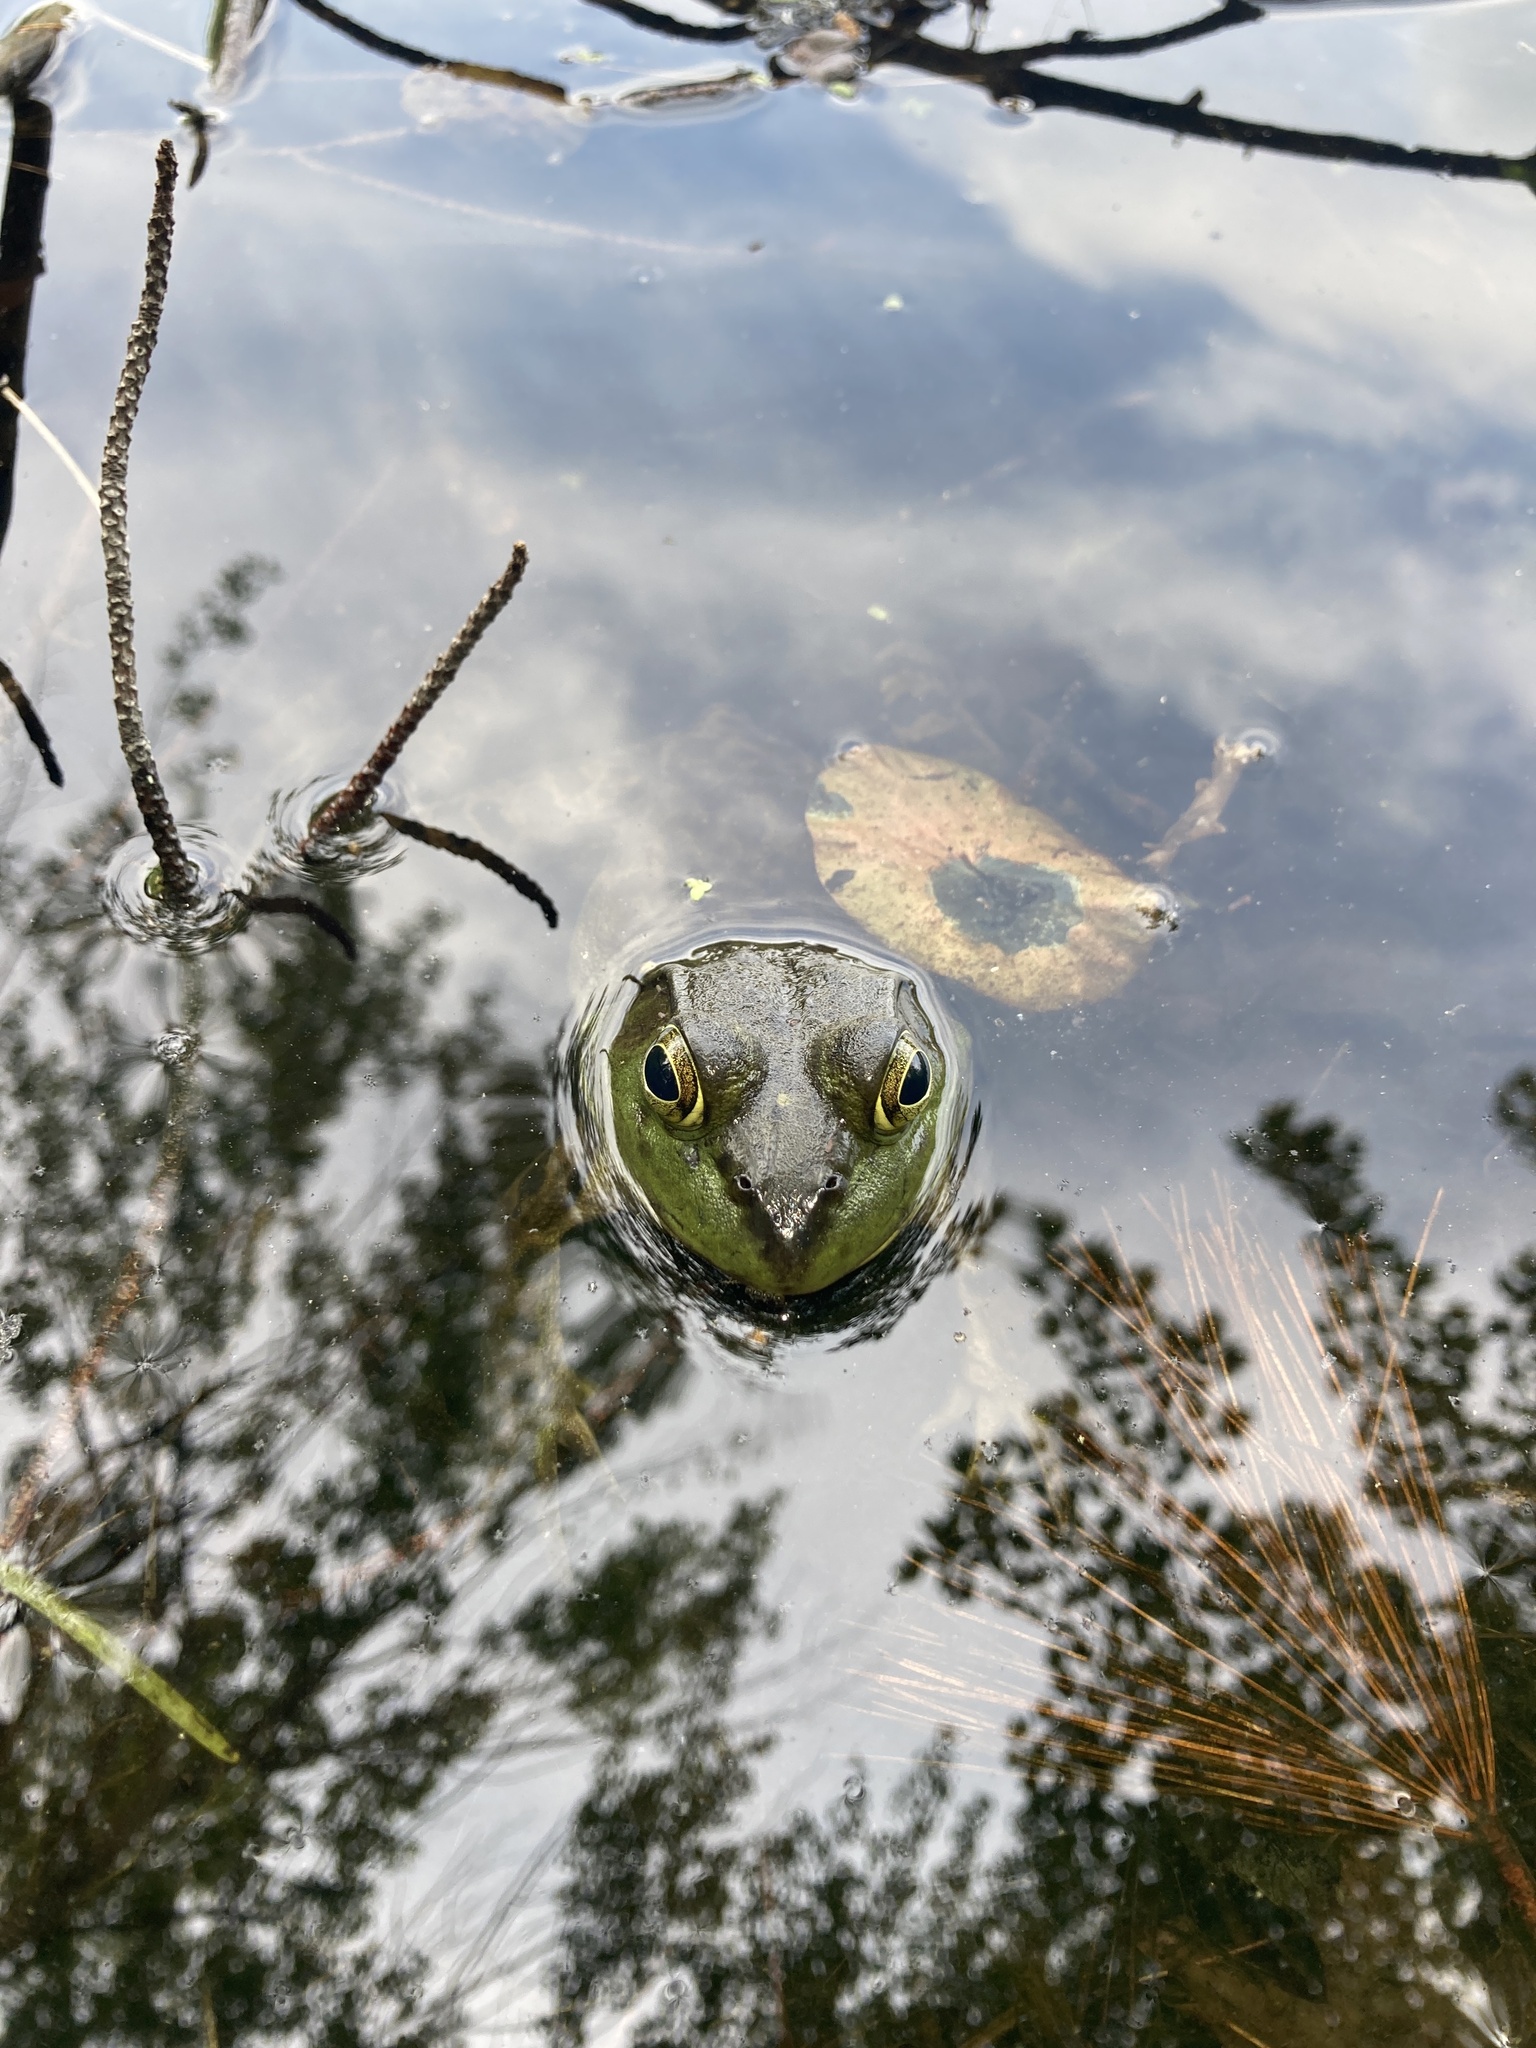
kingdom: Animalia
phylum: Chordata
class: Amphibia
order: Anura
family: Ranidae
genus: Lithobates
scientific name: Lithobates catesbeianus
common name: American bullfrog
